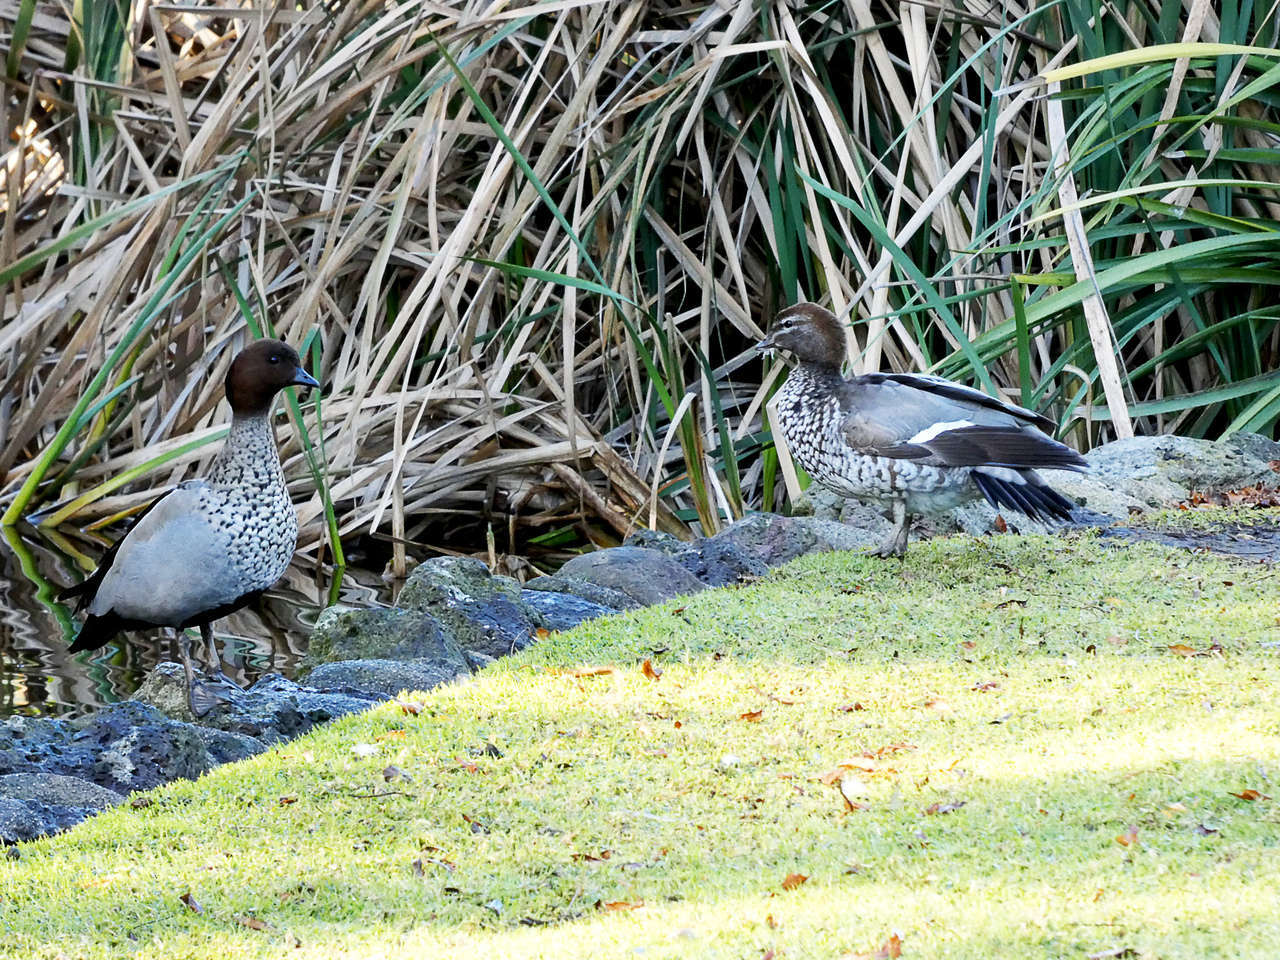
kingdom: Animalia
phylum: Chordata
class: Aves
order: Anseriformes
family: Anatidae
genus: Chenonetta
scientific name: Chenonetta jubata
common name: Maned duck
